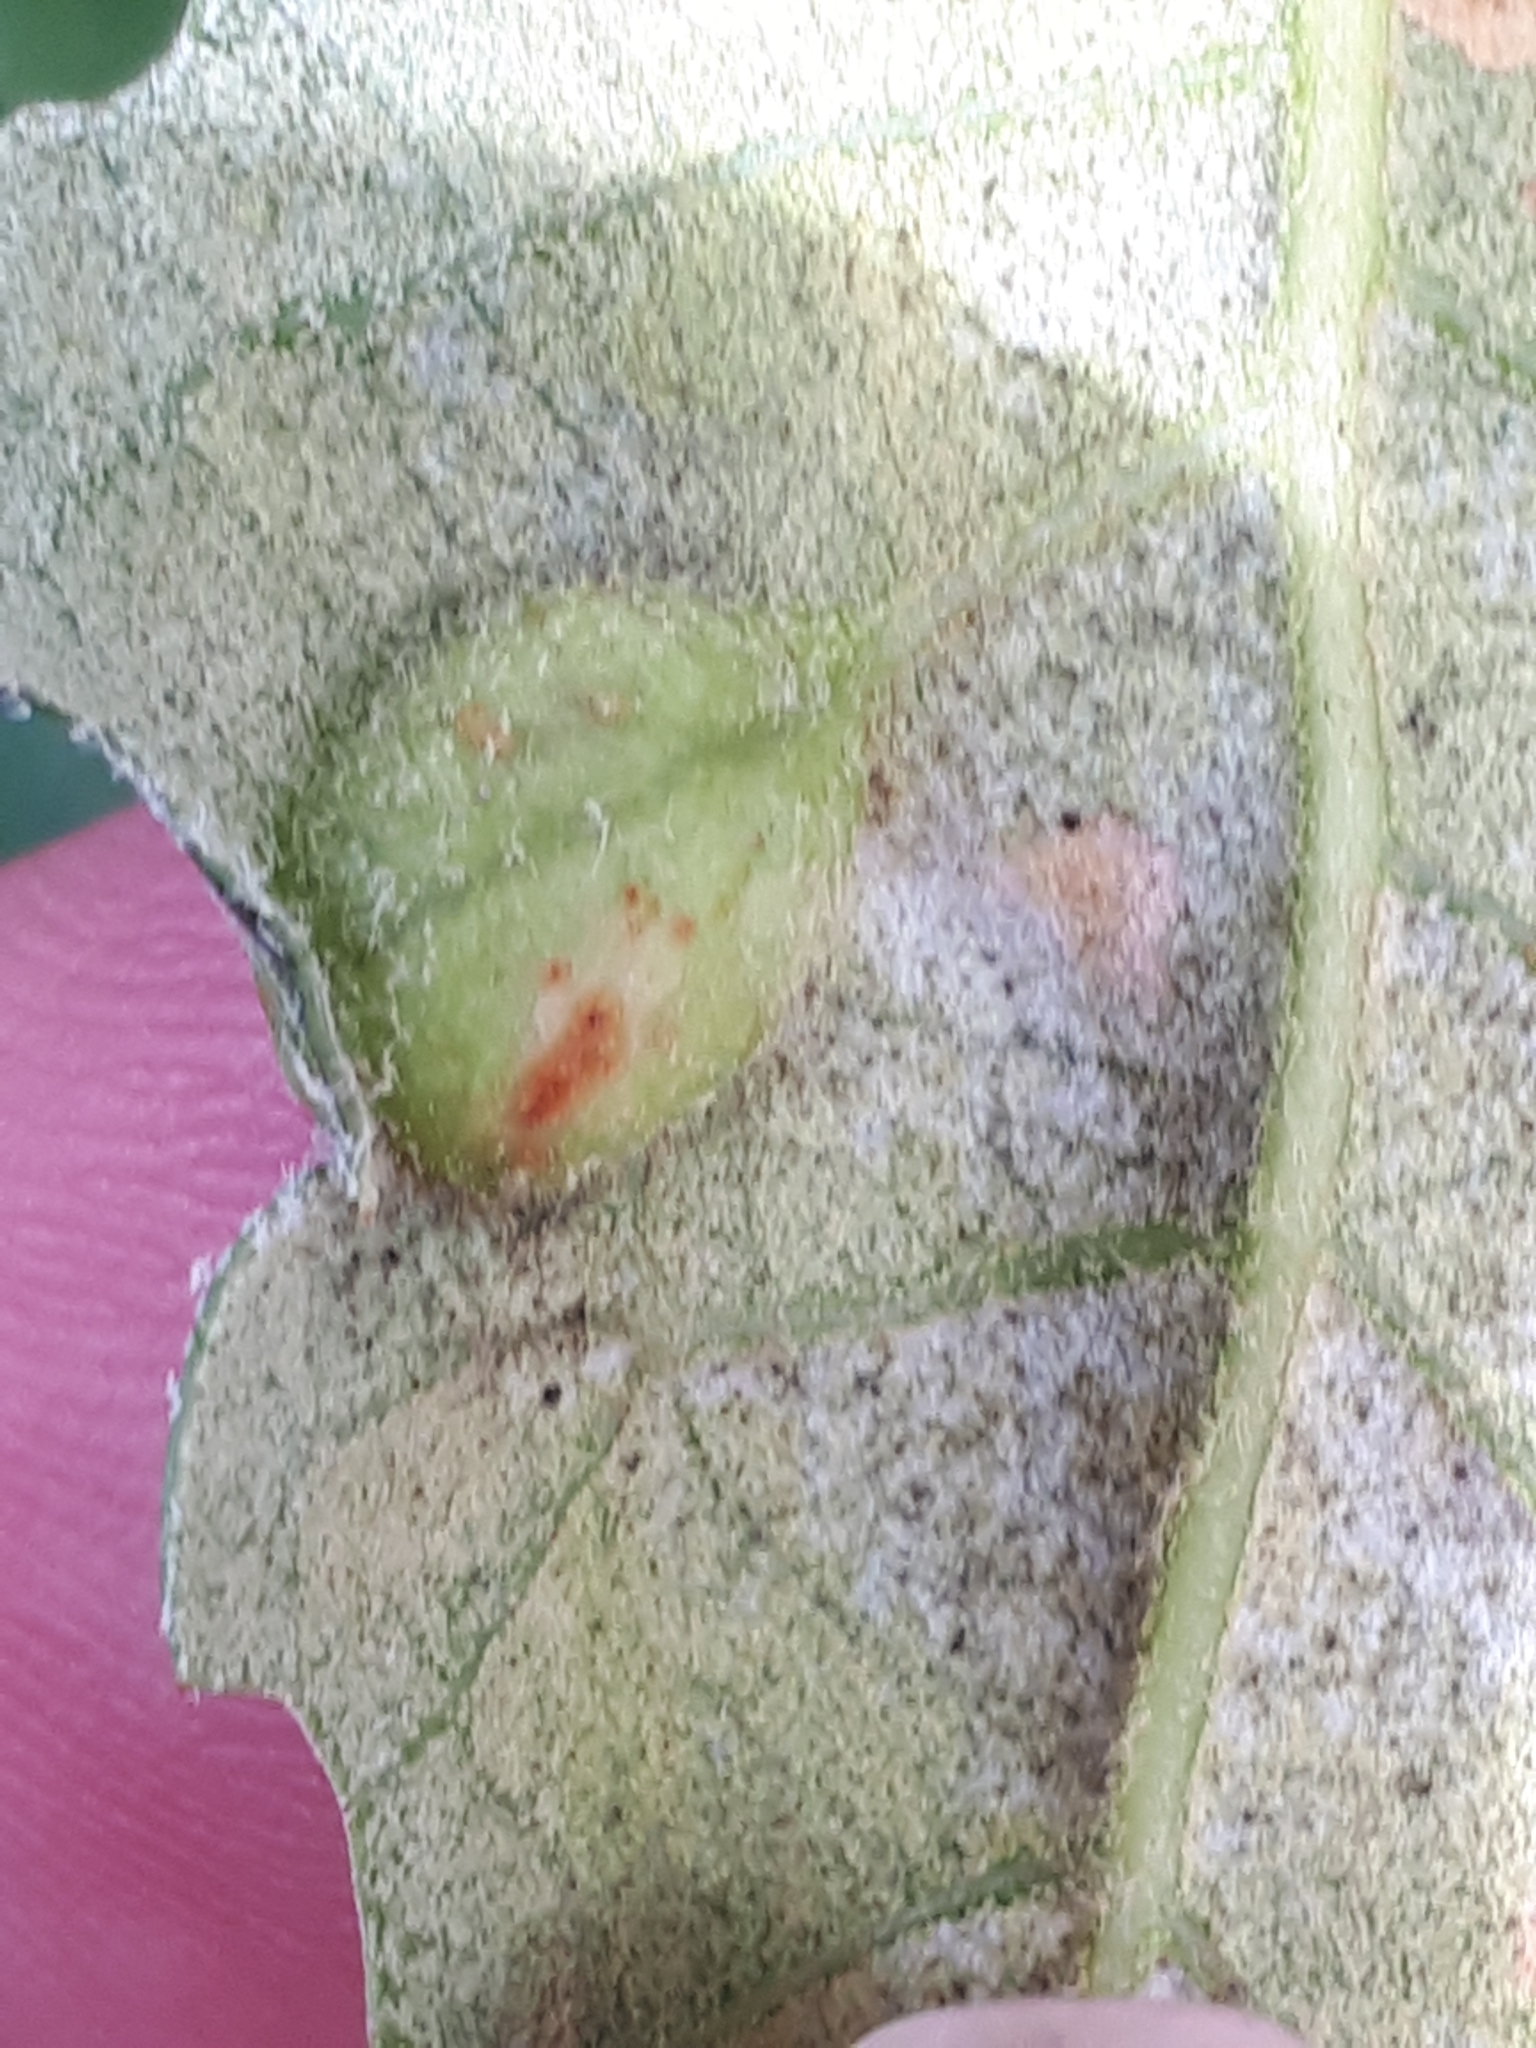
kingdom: Animalia
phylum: Arthropoda
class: Insecta
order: Hymenoptera
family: Cynipidae
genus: Plagiotrochus
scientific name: Plagiotrochus australis
